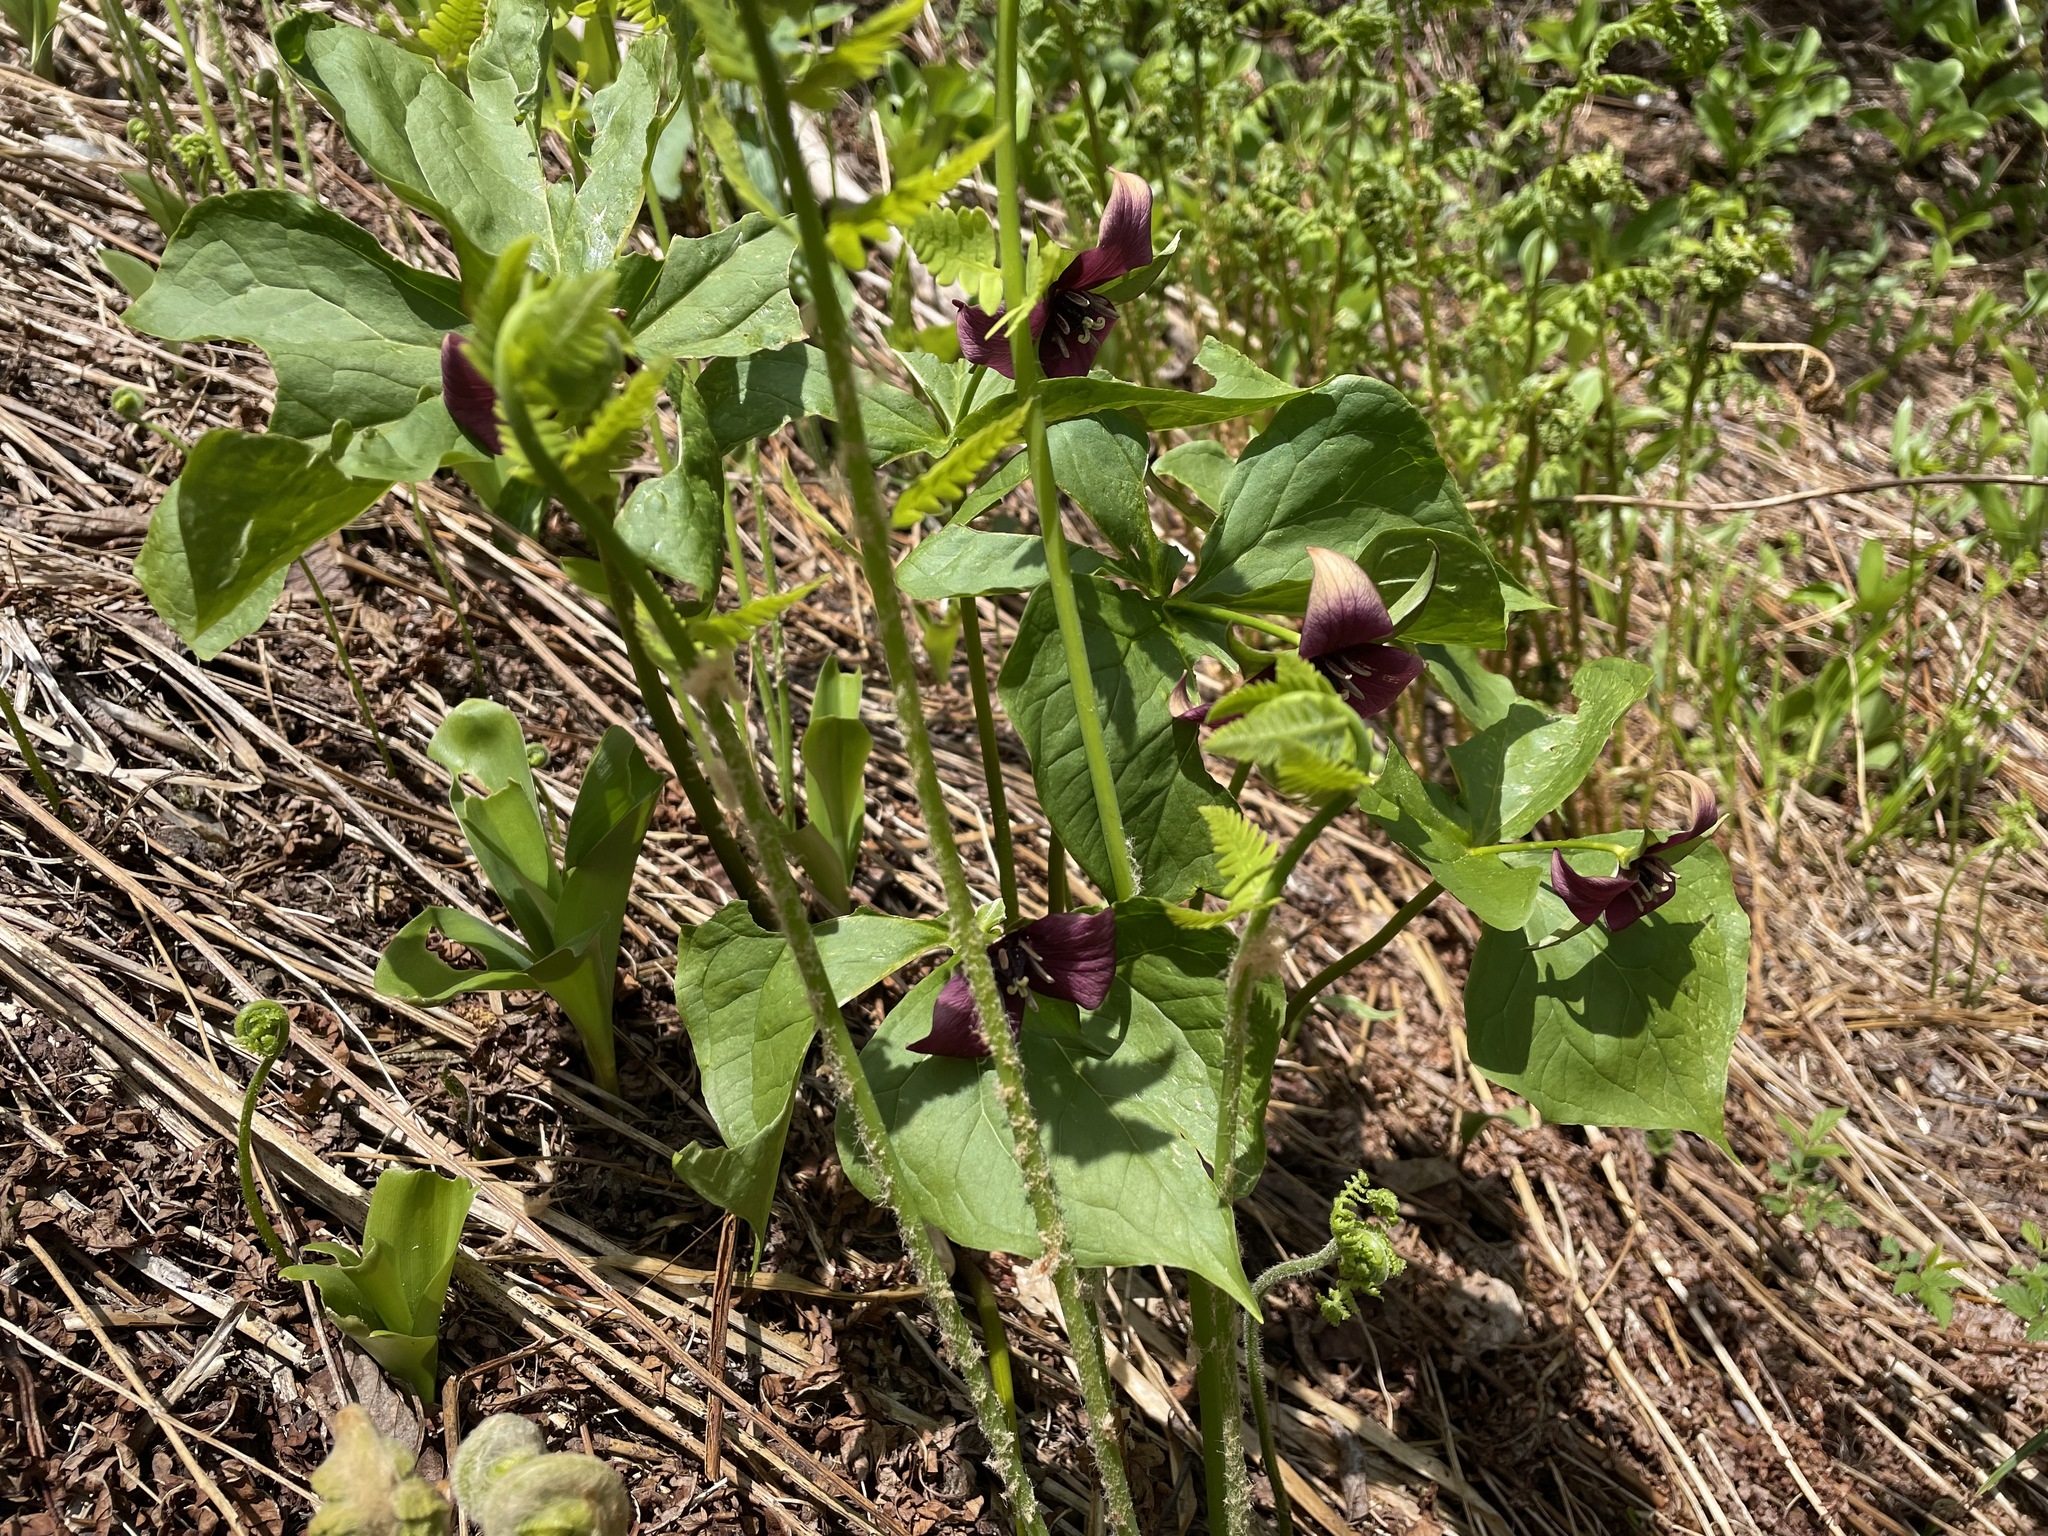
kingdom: Plantae
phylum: Tracheophyta
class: Liliopsida
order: Liliales
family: Melanthiaceae
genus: Trillium
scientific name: Trillium erectum
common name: Purple trillium
